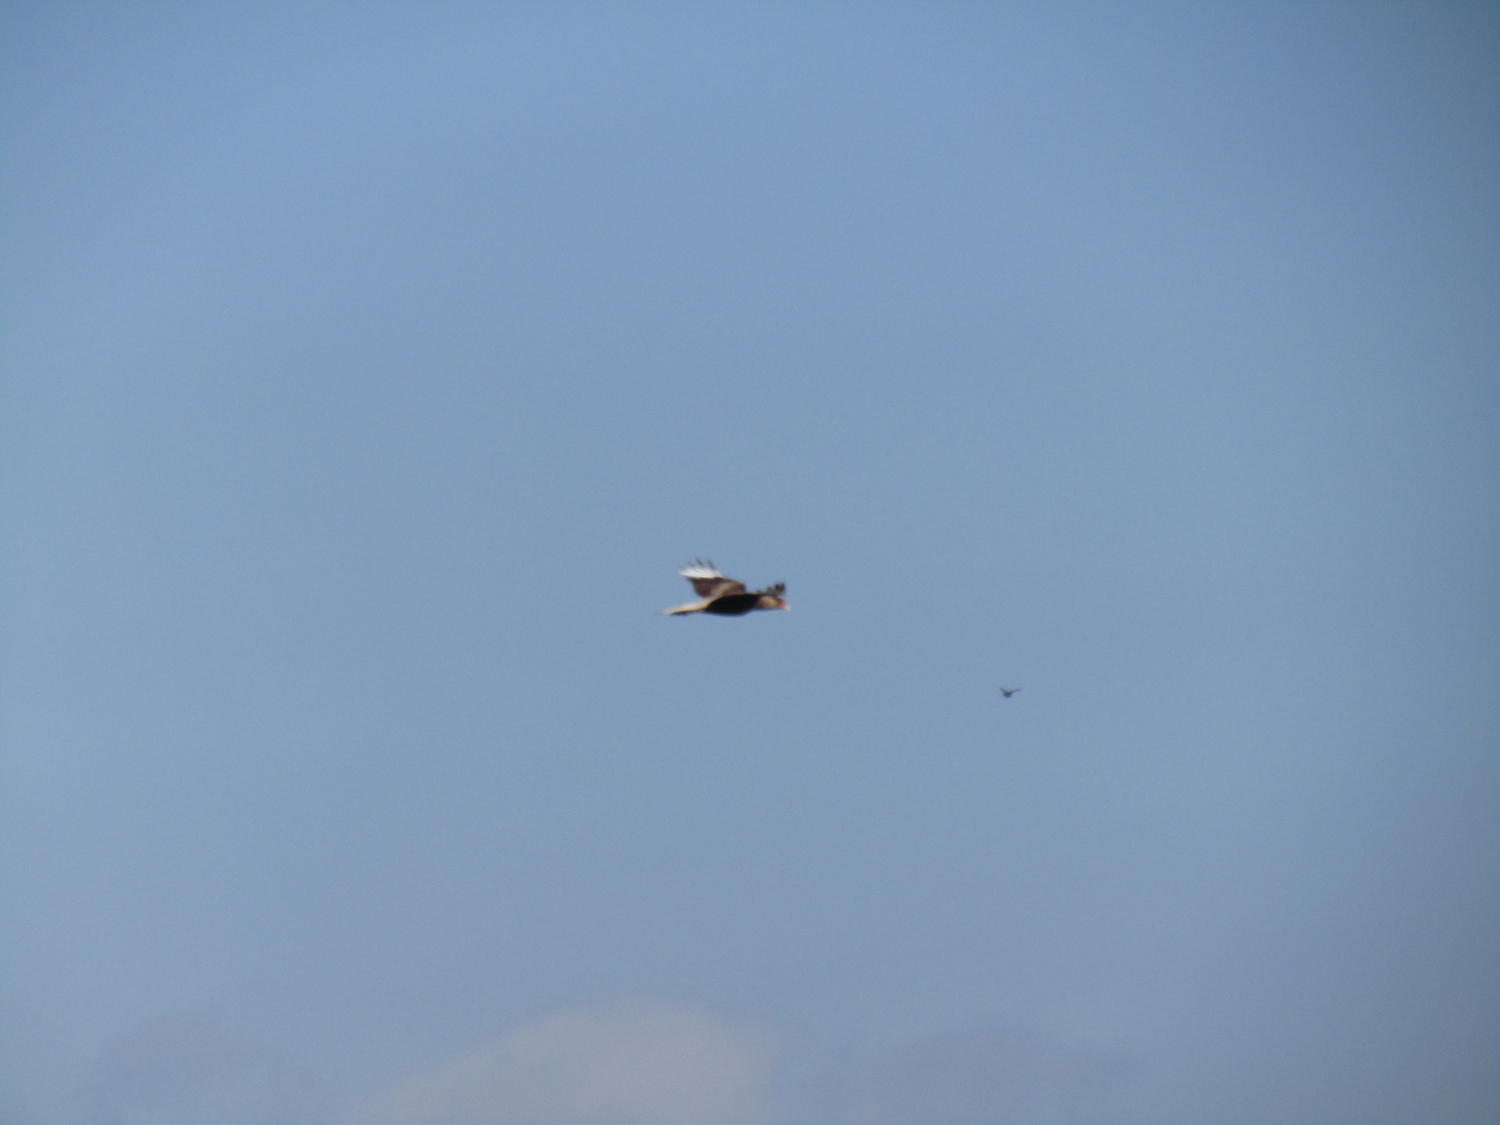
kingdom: Animalia
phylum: Chordata
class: Aves
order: Falconiformes
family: Falconidae
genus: Caracara
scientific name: Caracara plancus
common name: Southern caracara
